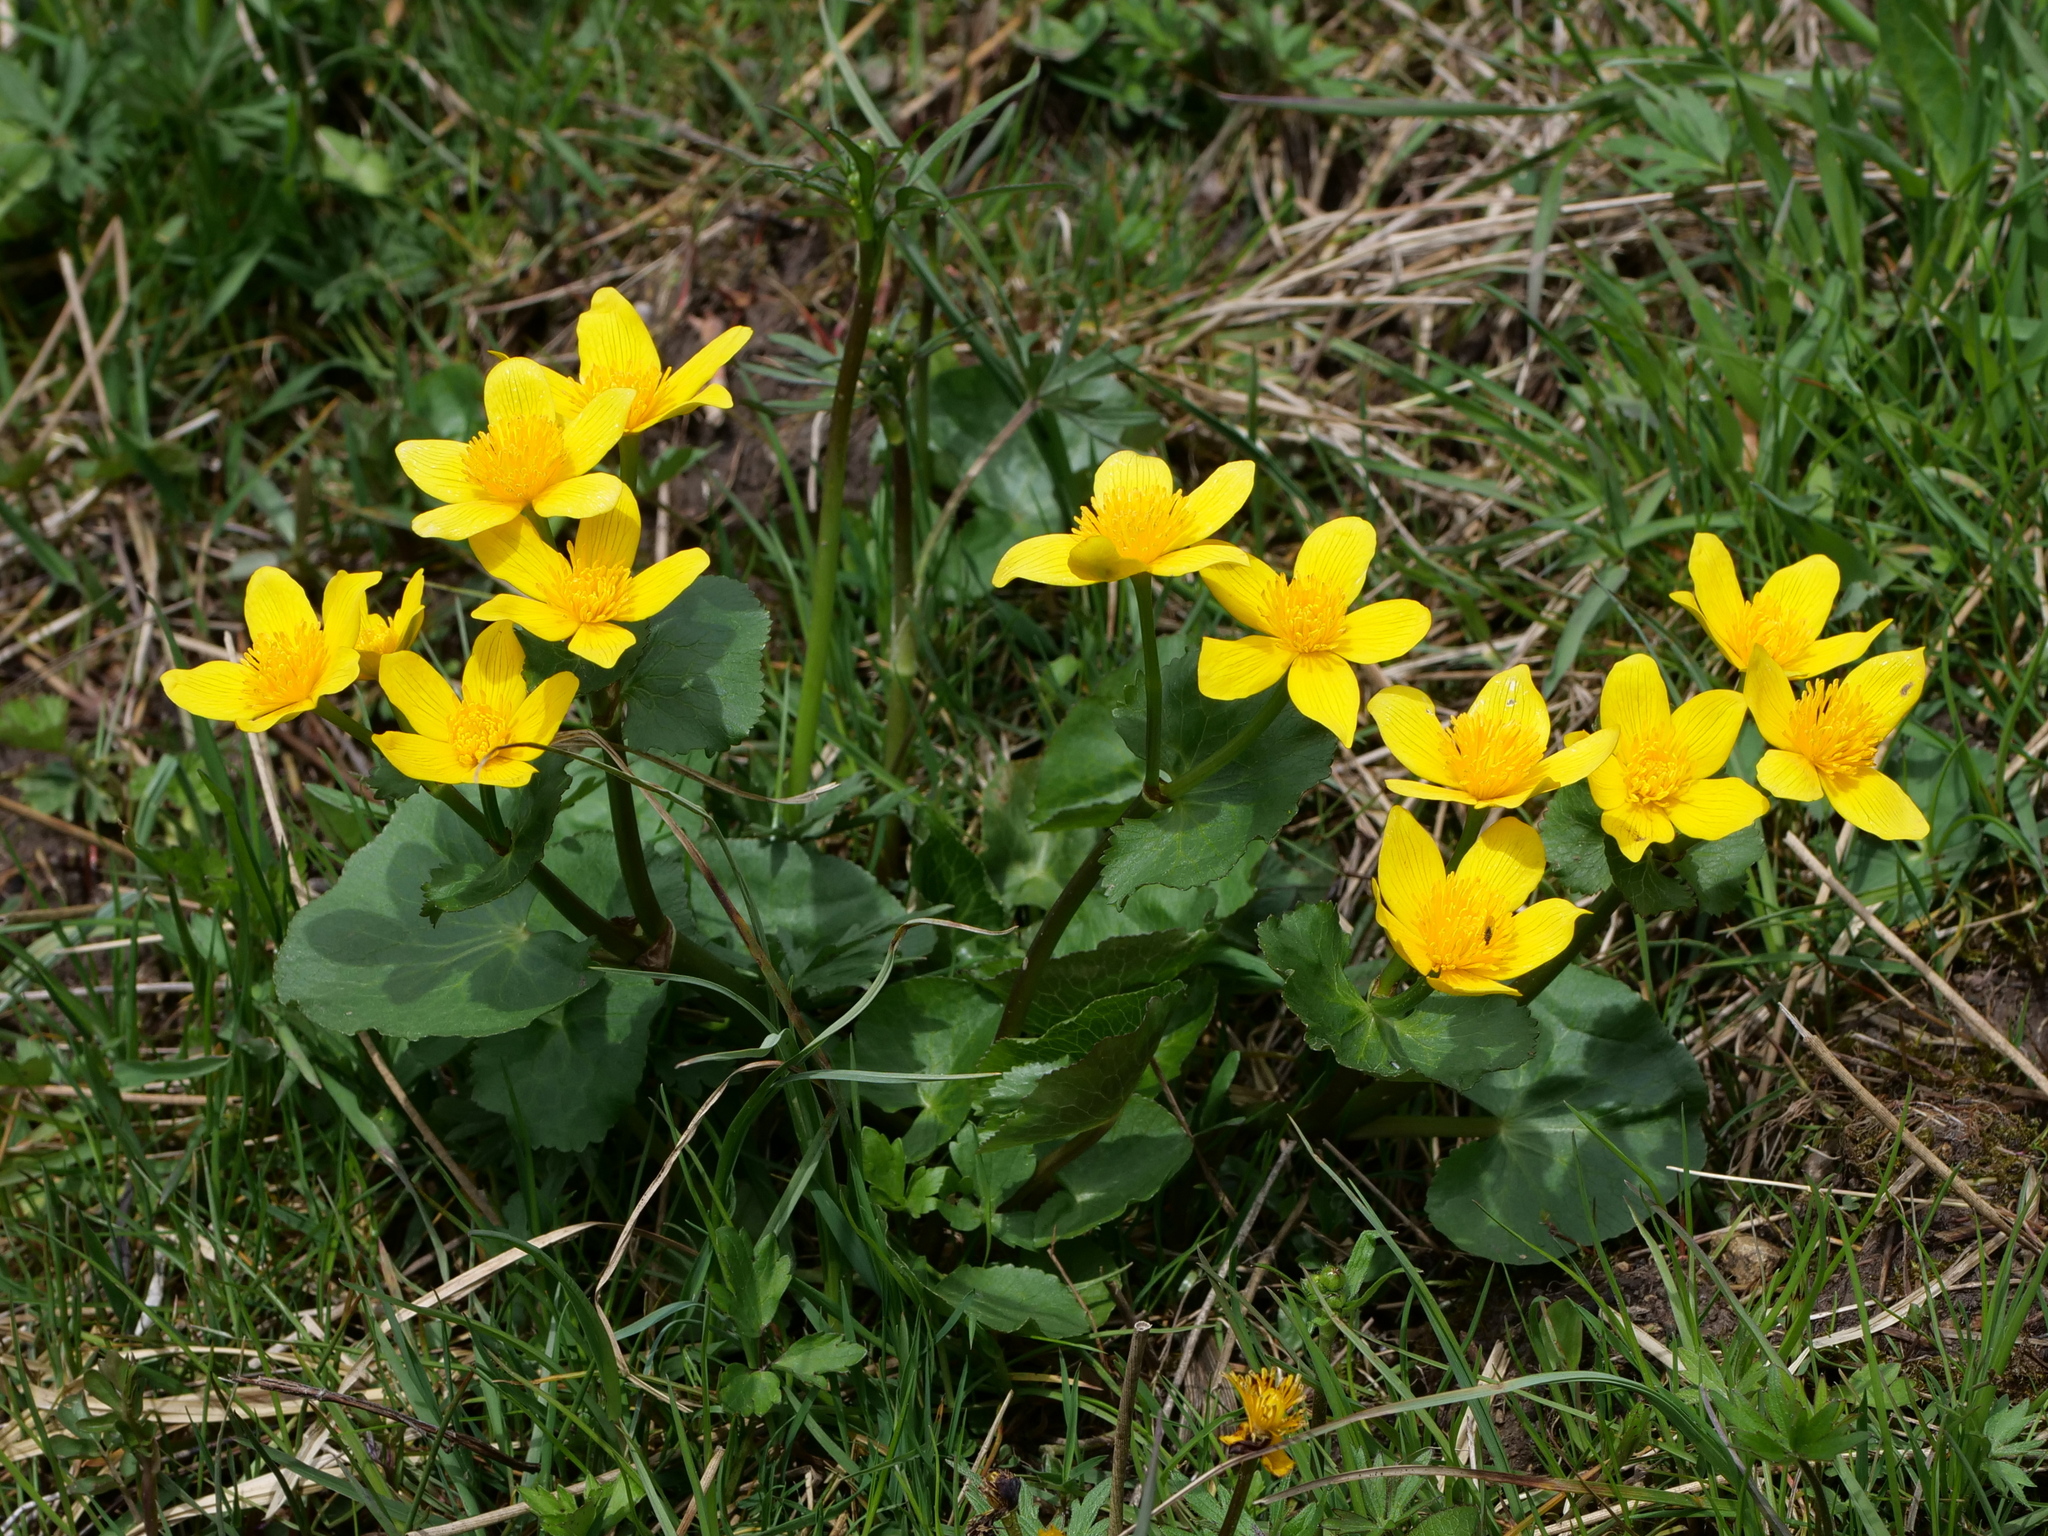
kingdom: Plantae
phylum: Tracheophyta
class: Magnoliopsida
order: Ranunculales
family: Ranunculaceae
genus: Caltha
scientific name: Caltha palustris
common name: Marsh marigold
